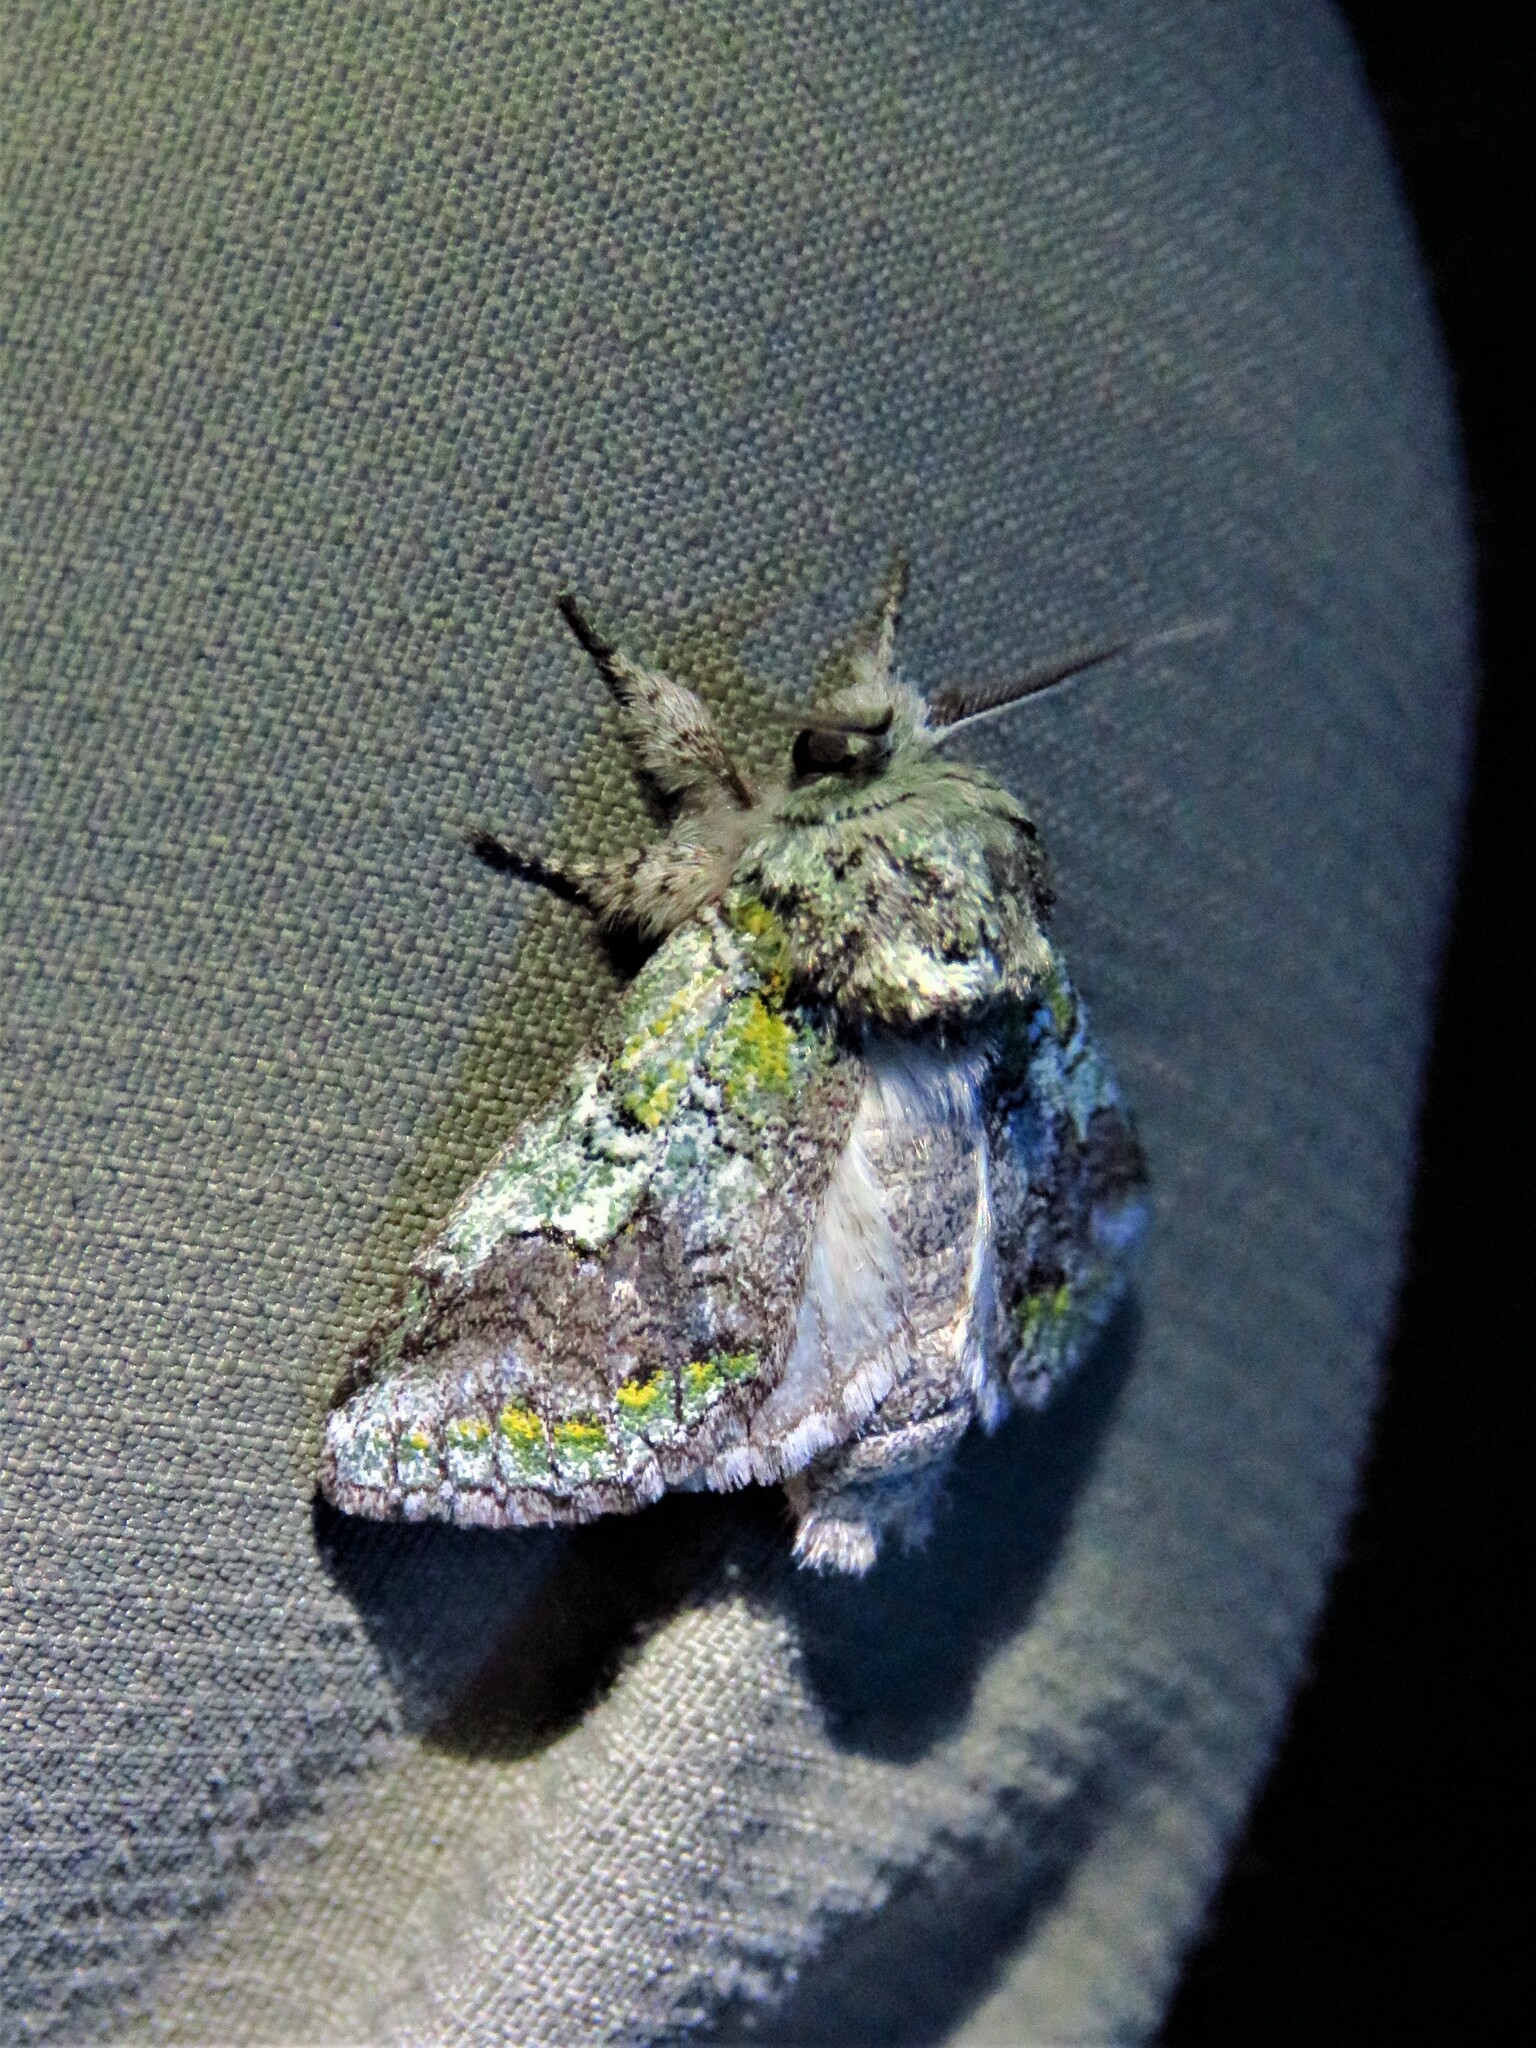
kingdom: Animalia
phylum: Arthropoda
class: Insecta
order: Lepidoptera
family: Notodontidae
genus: Litodonta
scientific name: Litodonta hydromeli
